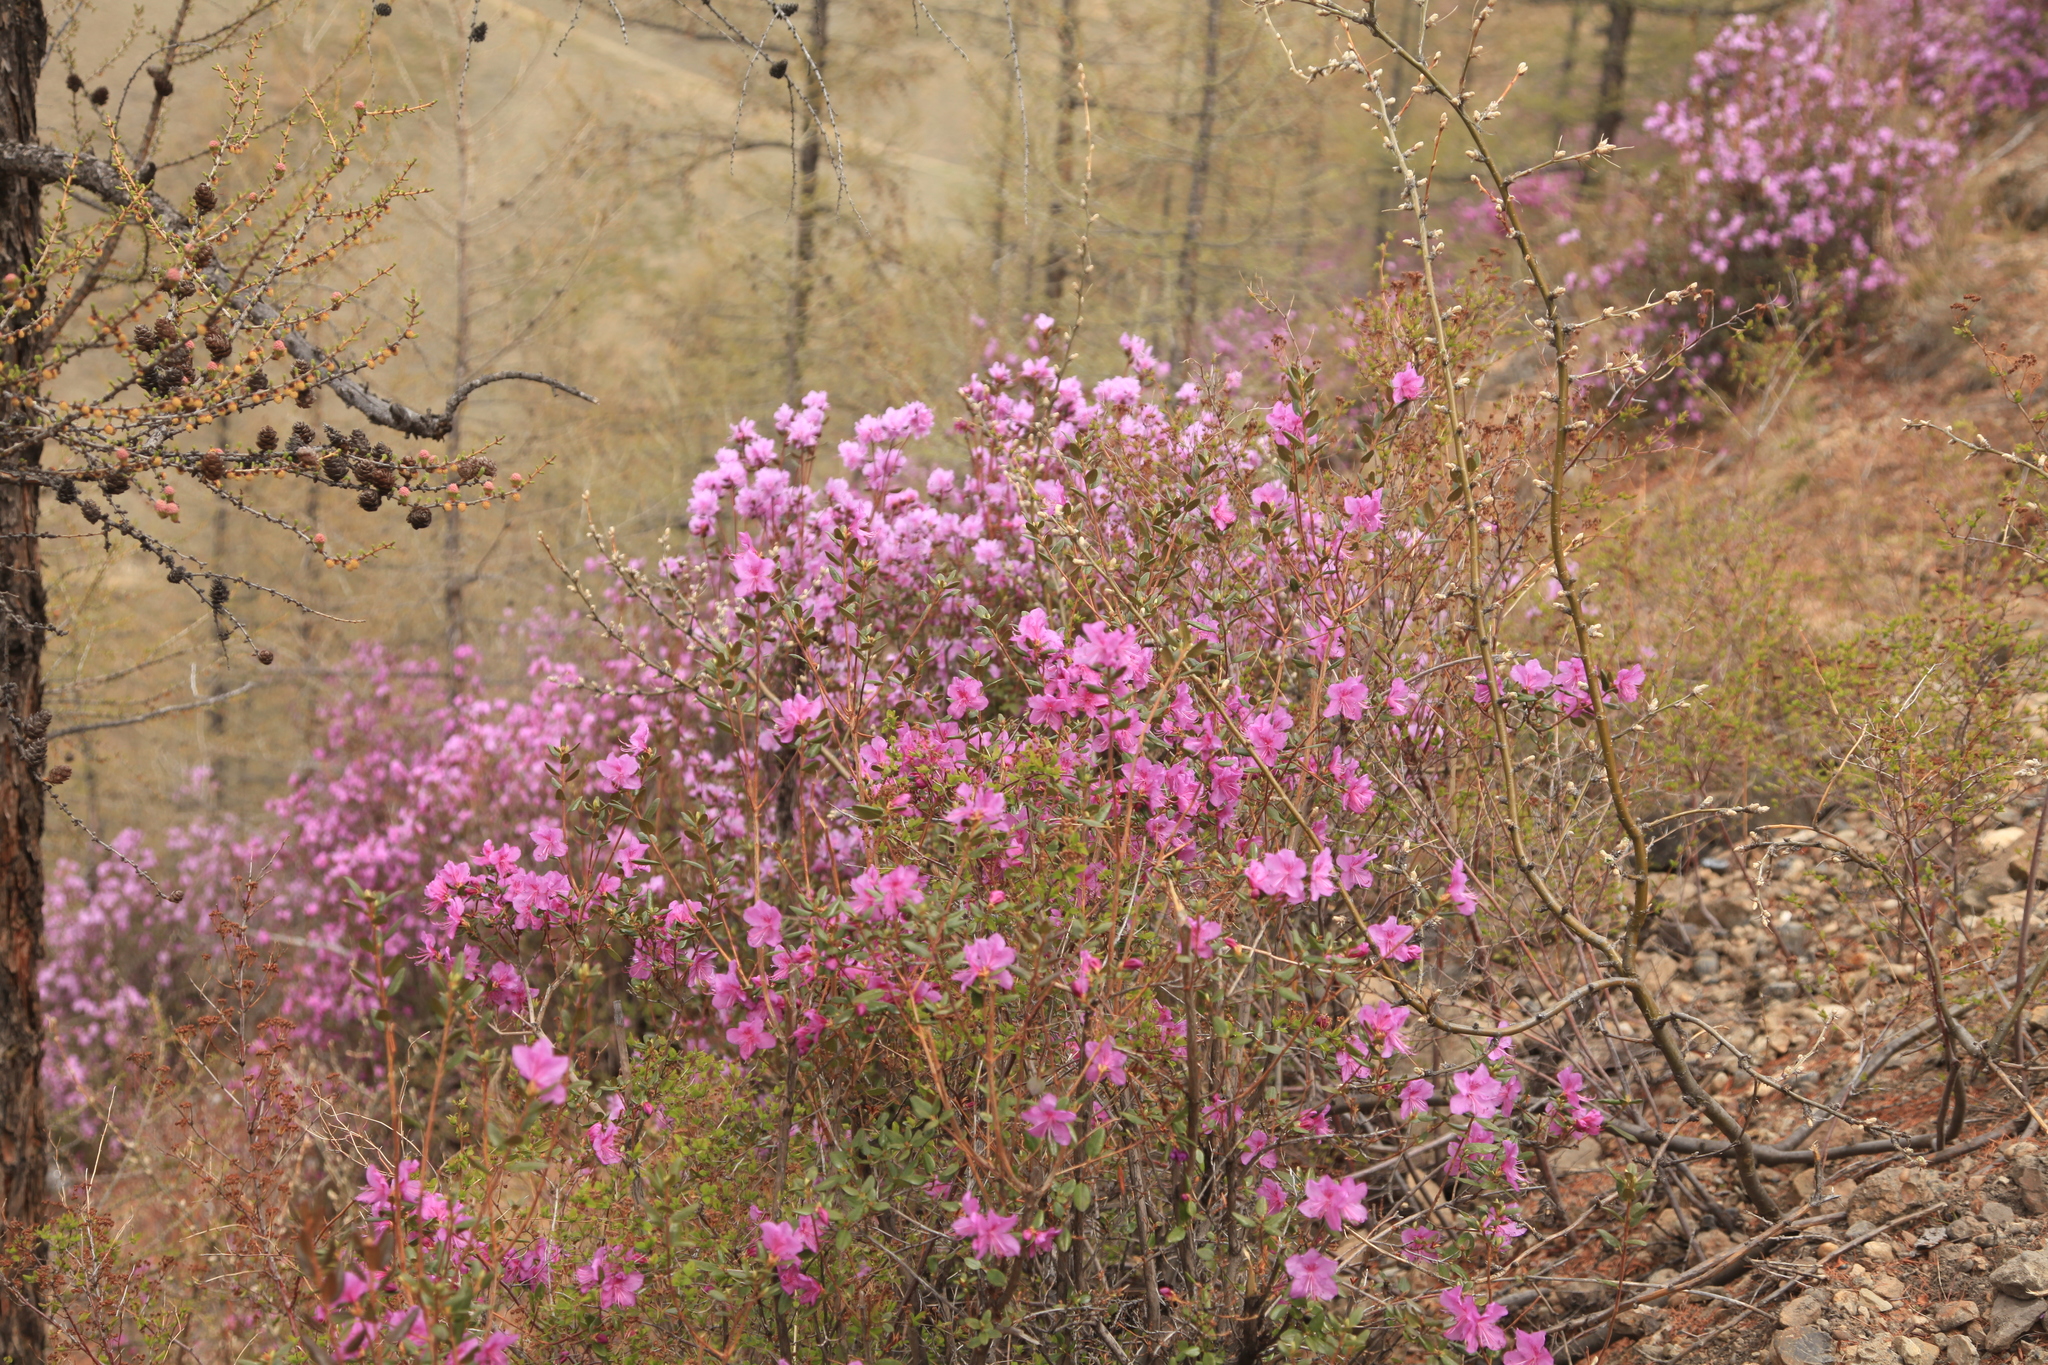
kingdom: Plantae
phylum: Tracheophyta
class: Magnoliopsida
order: Ericales
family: Ericaceae
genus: Rhododendron
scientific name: Rhododendron dauricum
